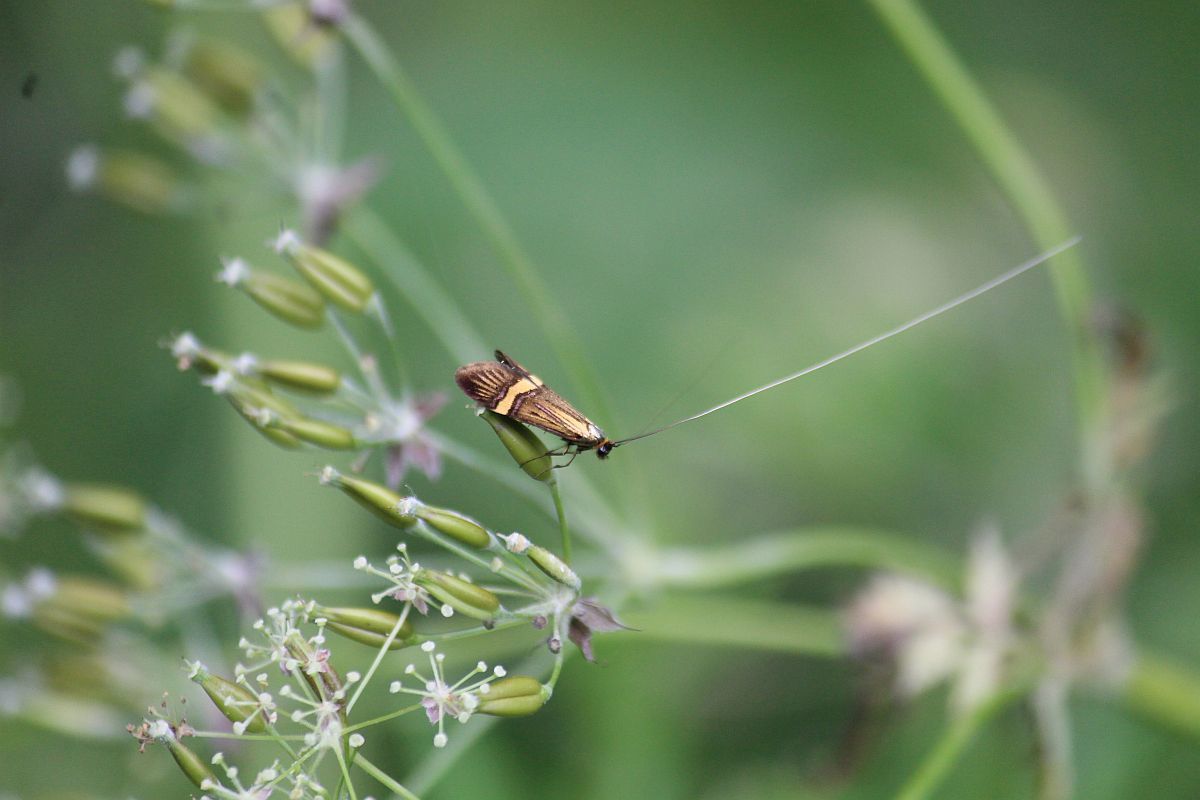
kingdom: Animalia
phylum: Arthropoda
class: Insecta
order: Lepidoptera
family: Adelidae
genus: Nemophora
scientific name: Nemophora degeerella
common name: Yellow-barred long-horn
